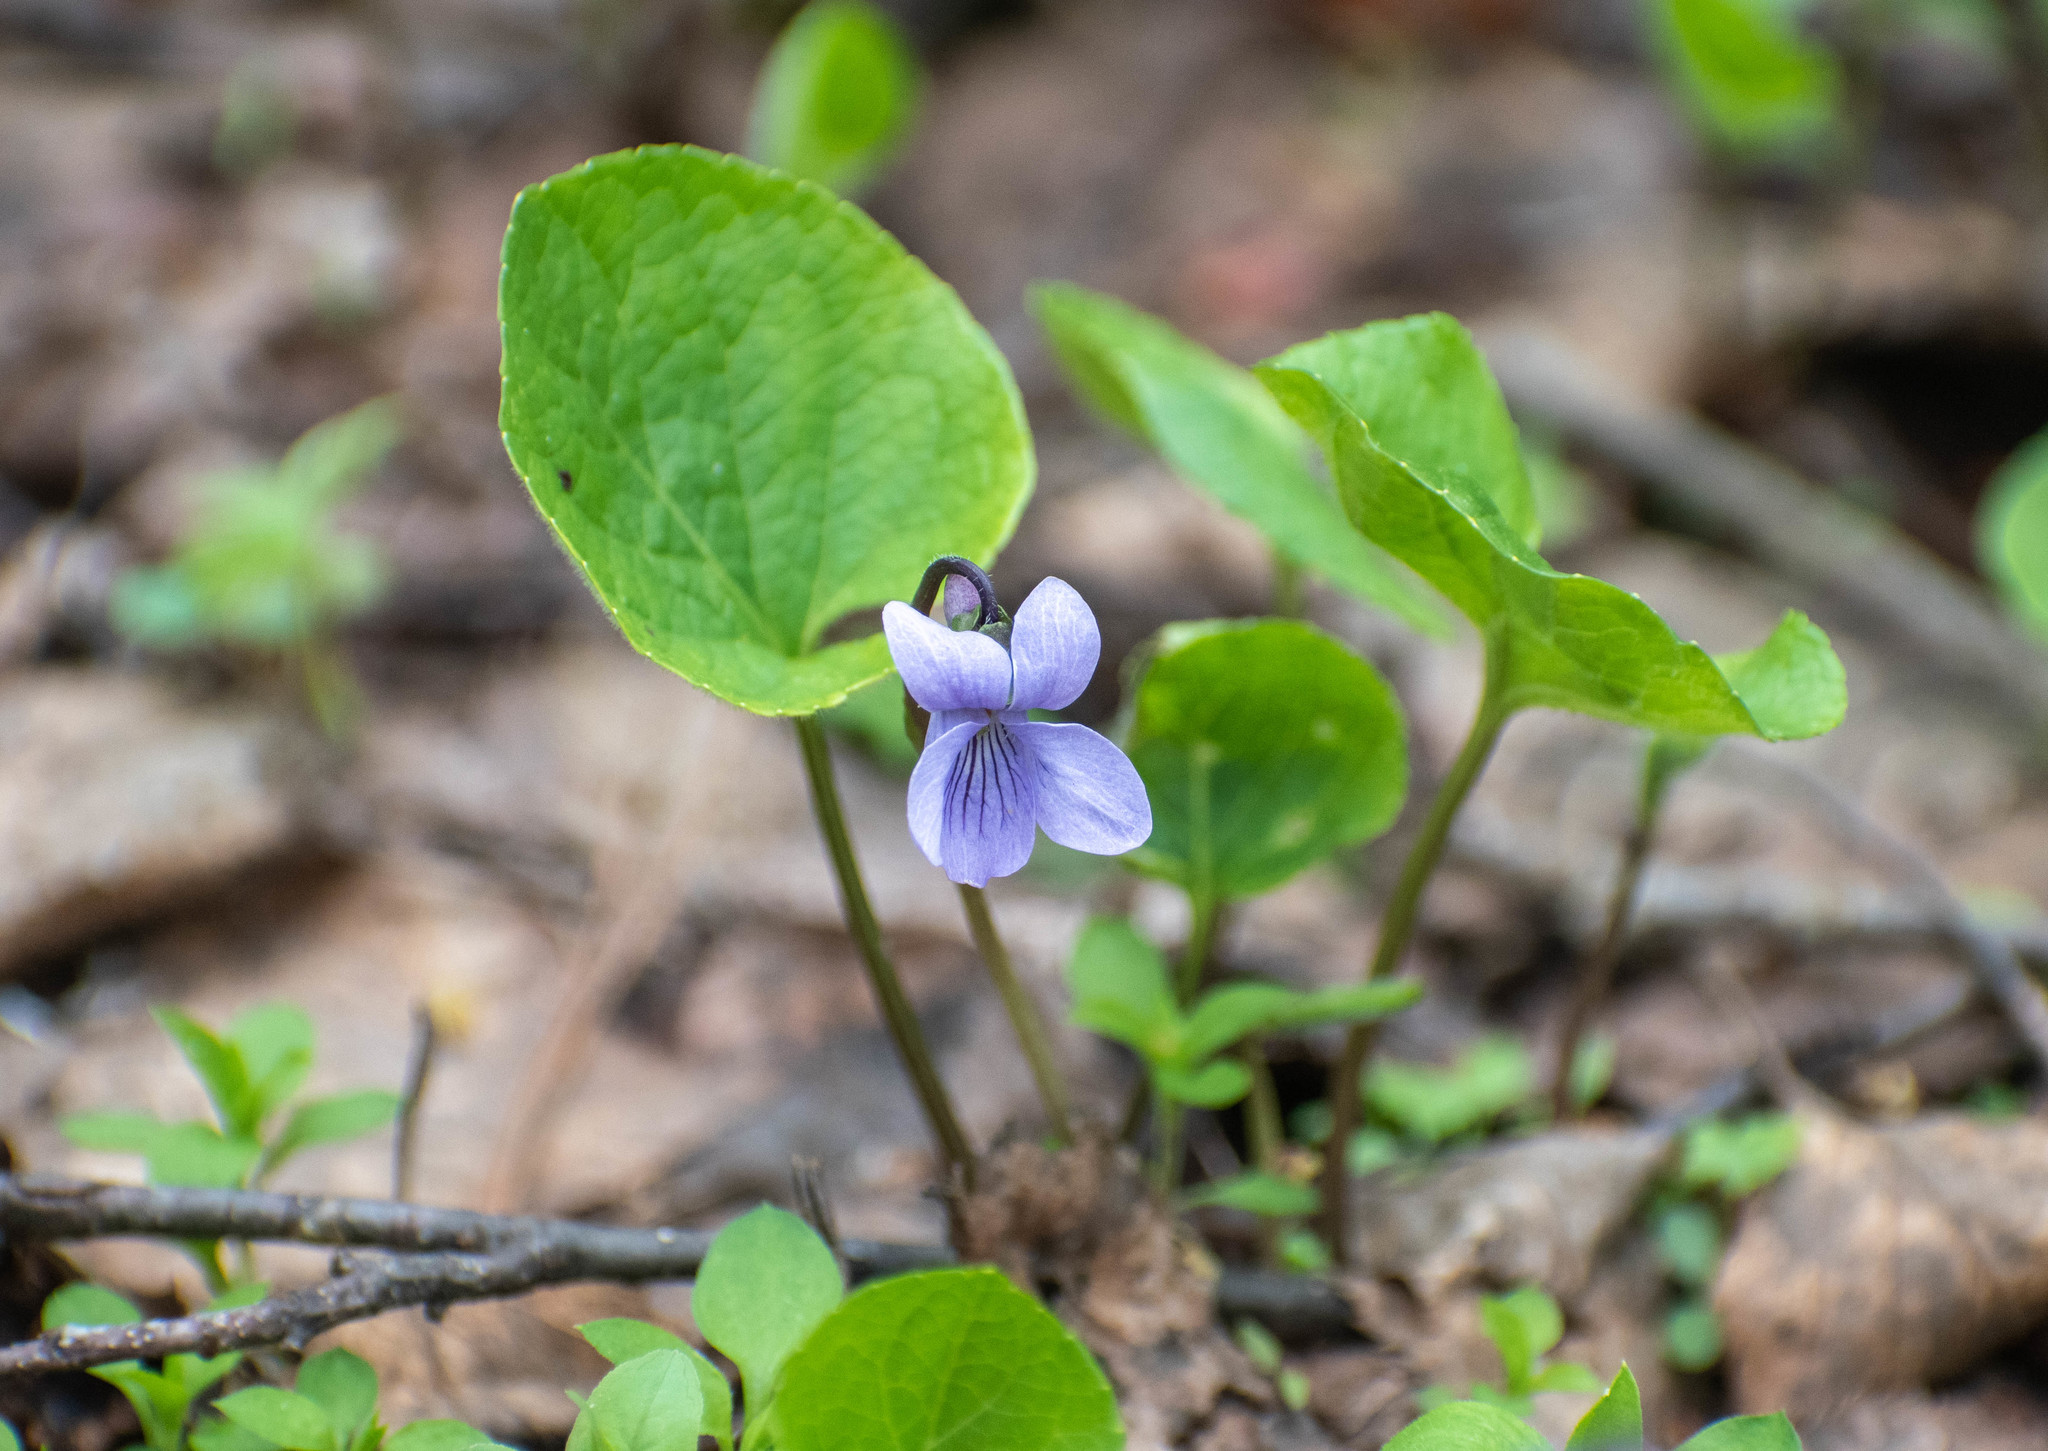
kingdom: Plantae
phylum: Tracheophyta
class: Magnoliopsida
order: Malpighiales
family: Violaceae
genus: Viola
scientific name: Viola epipsila
